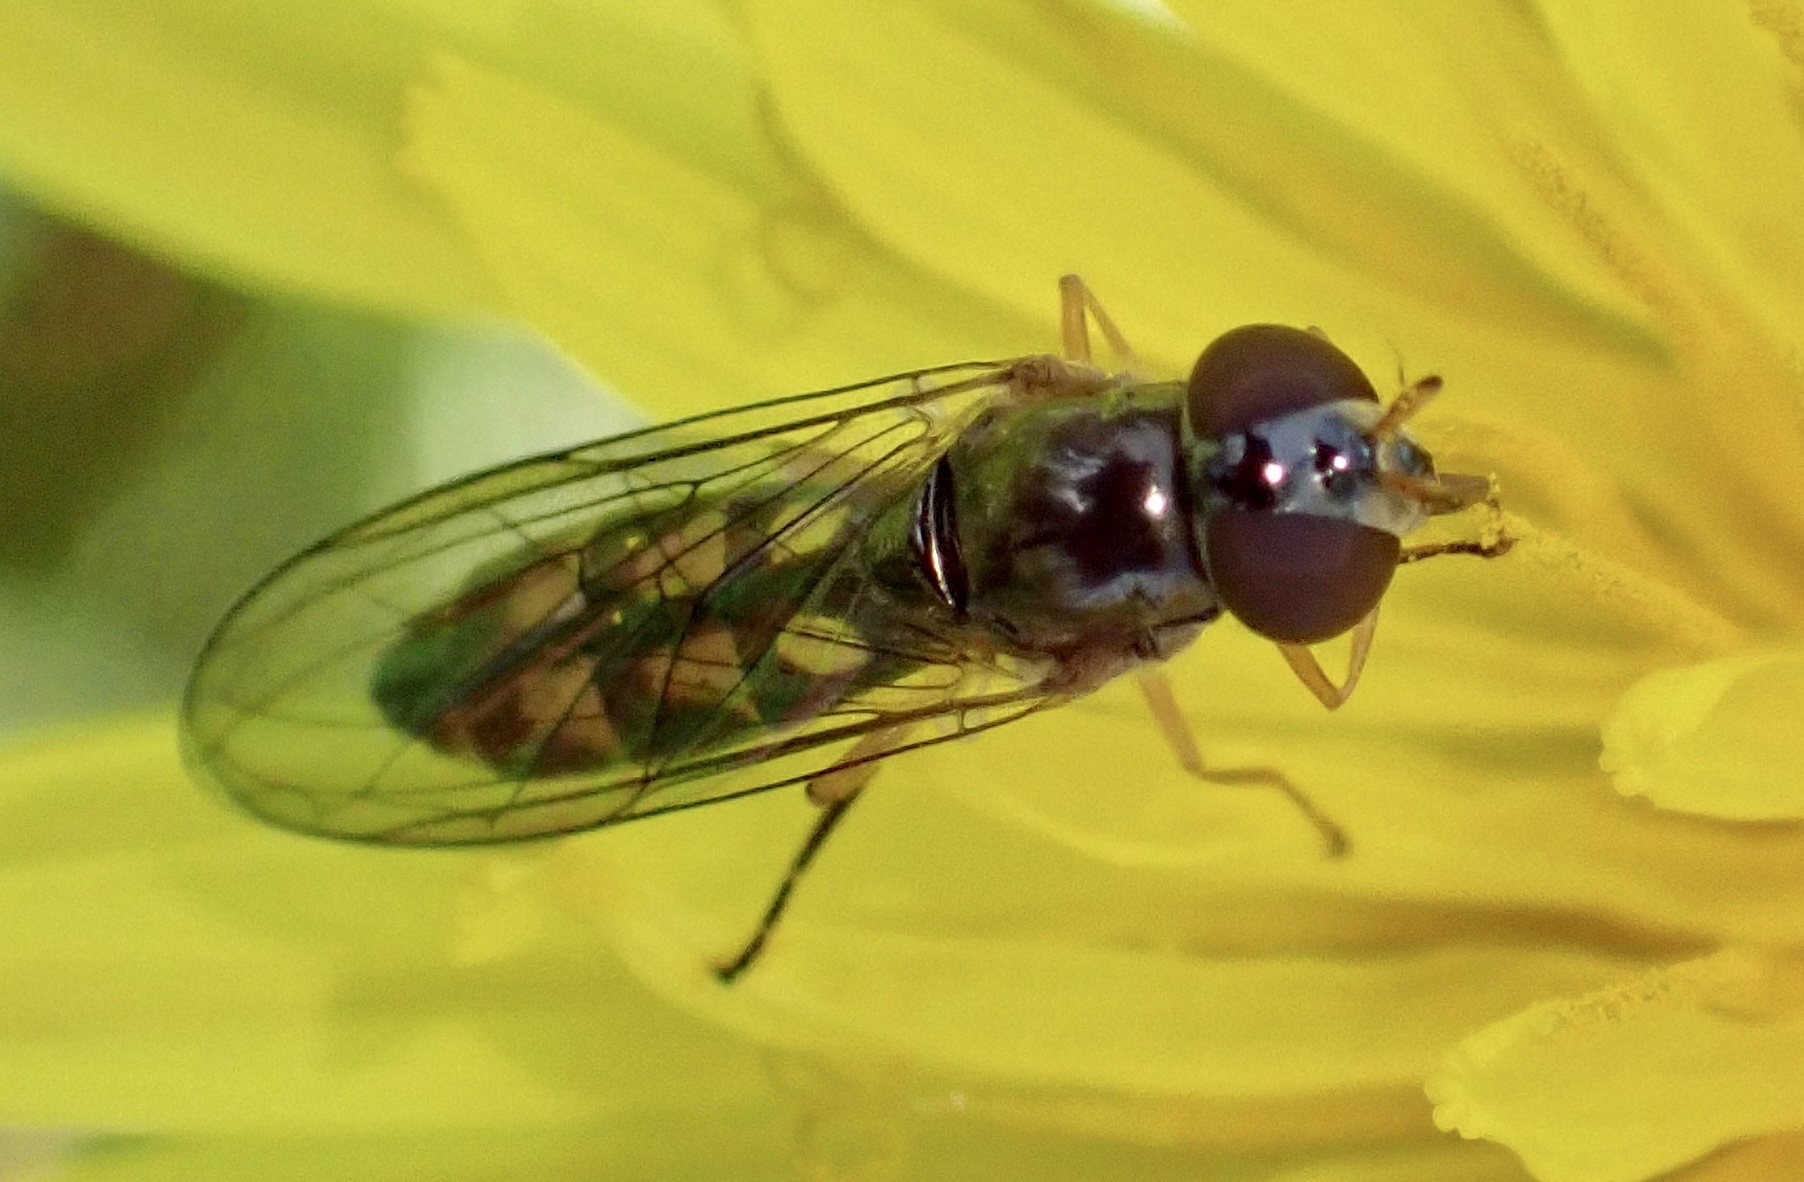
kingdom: Animalia
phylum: Arthropoda
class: Insecta
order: Diptera
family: Syrphidae
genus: Melanostoma
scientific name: Melanostoma scalare
